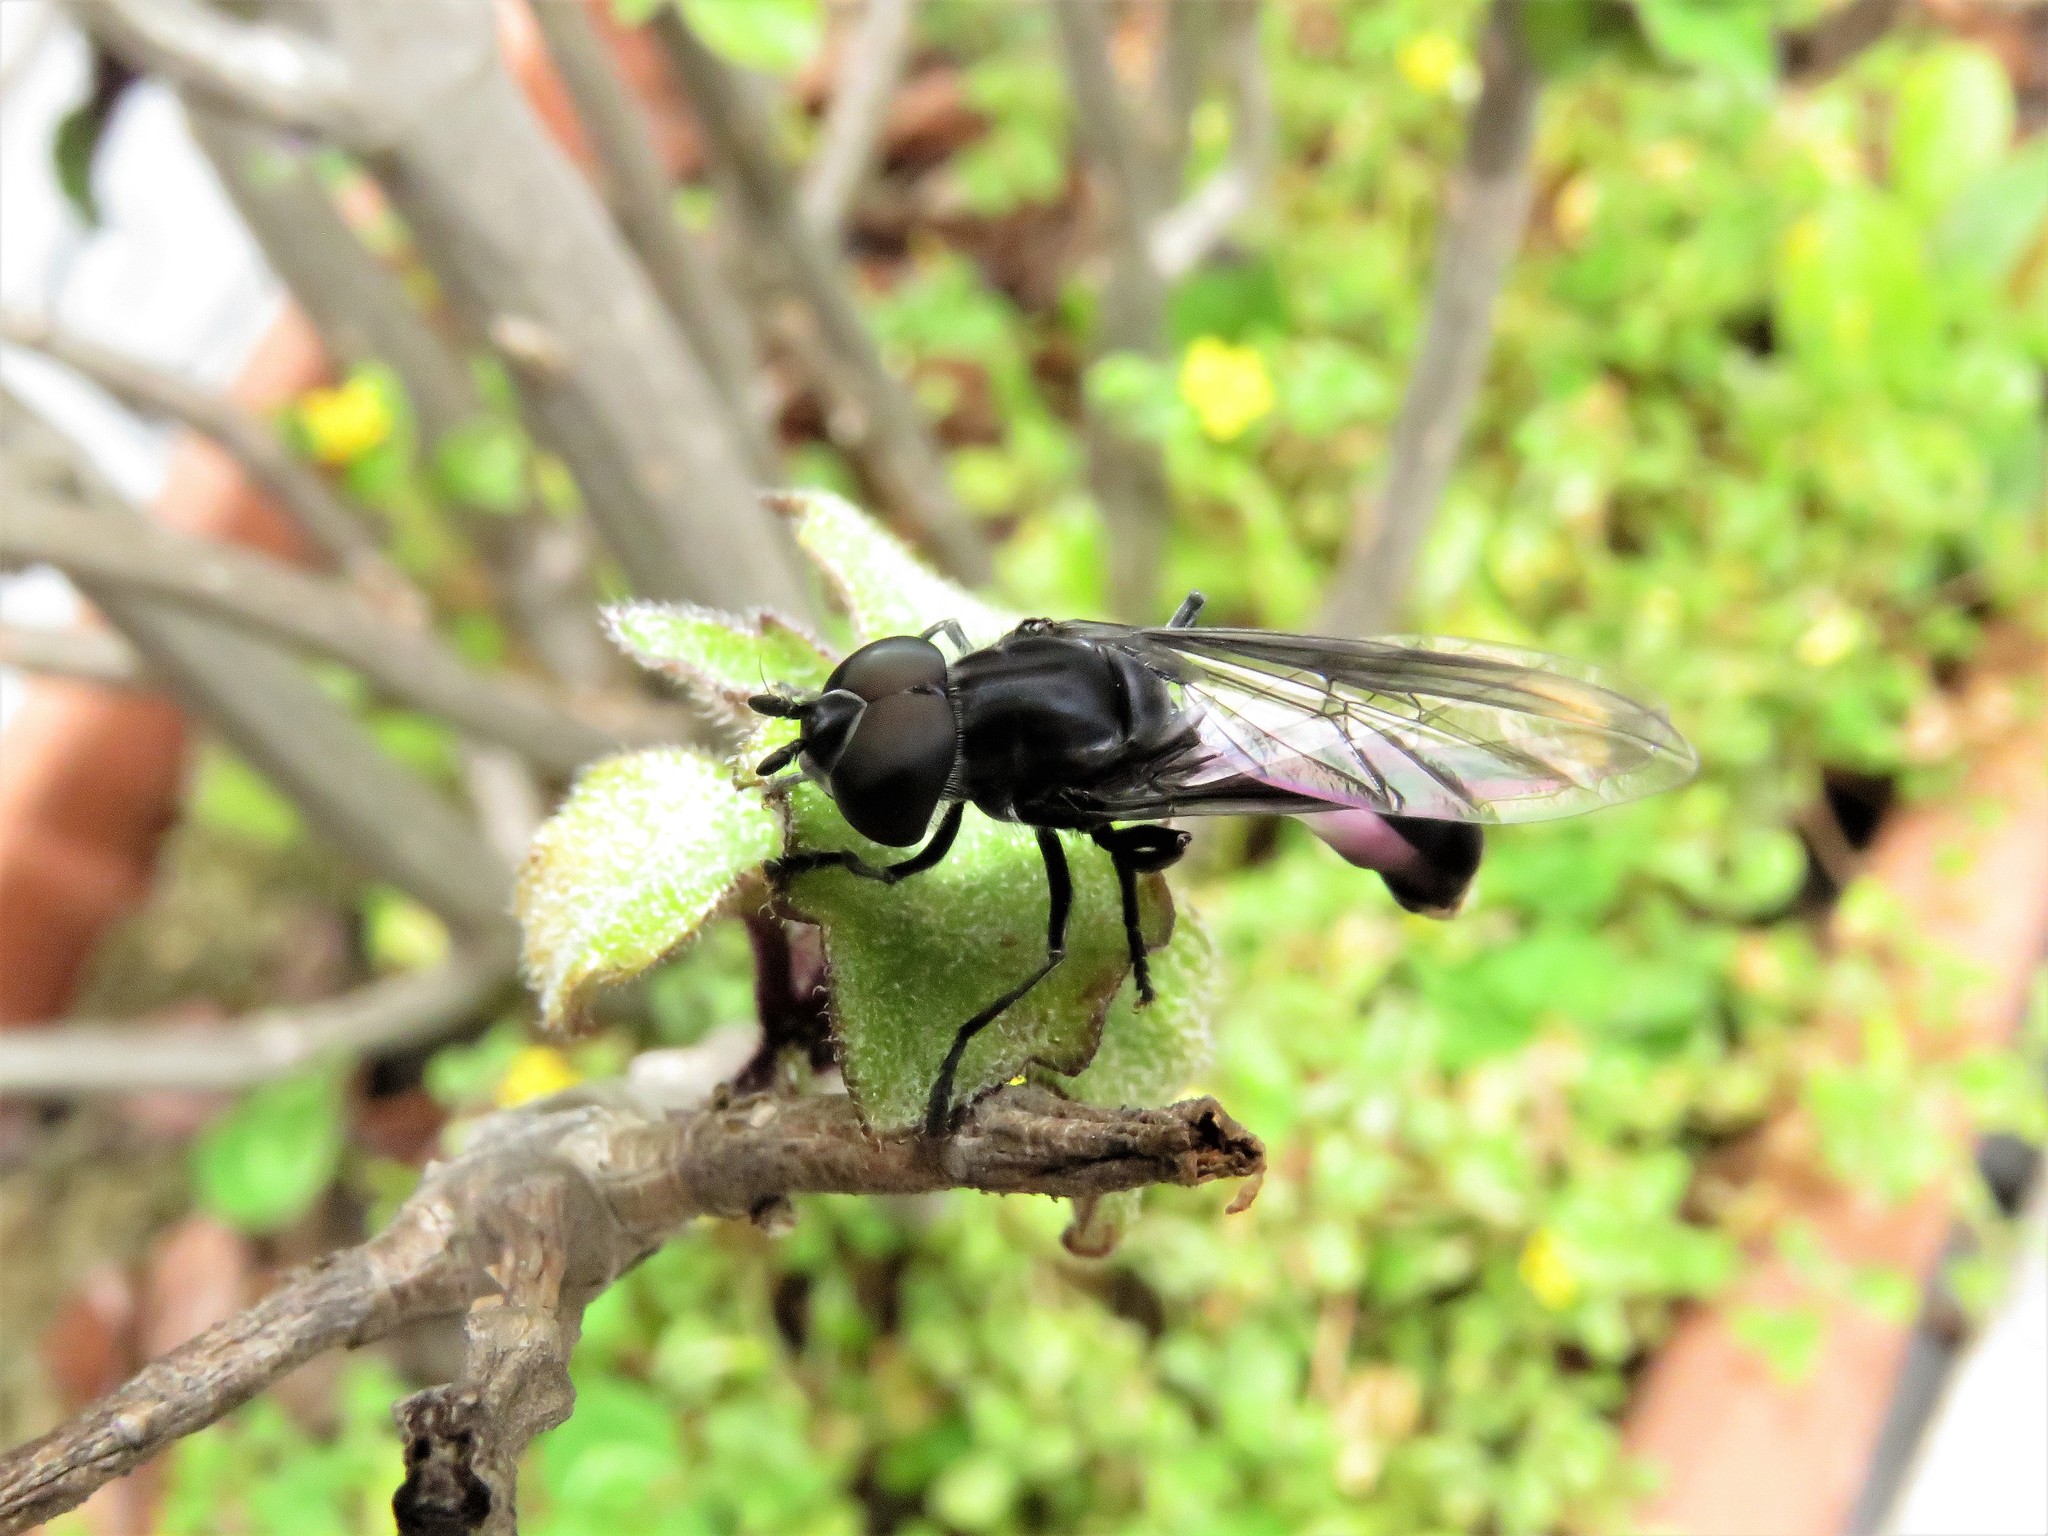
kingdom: Animalia
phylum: Arthropoda
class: Insecta
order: Diptera
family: Syrphidae
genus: Mimocalla
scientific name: Mimocalla giganteus
